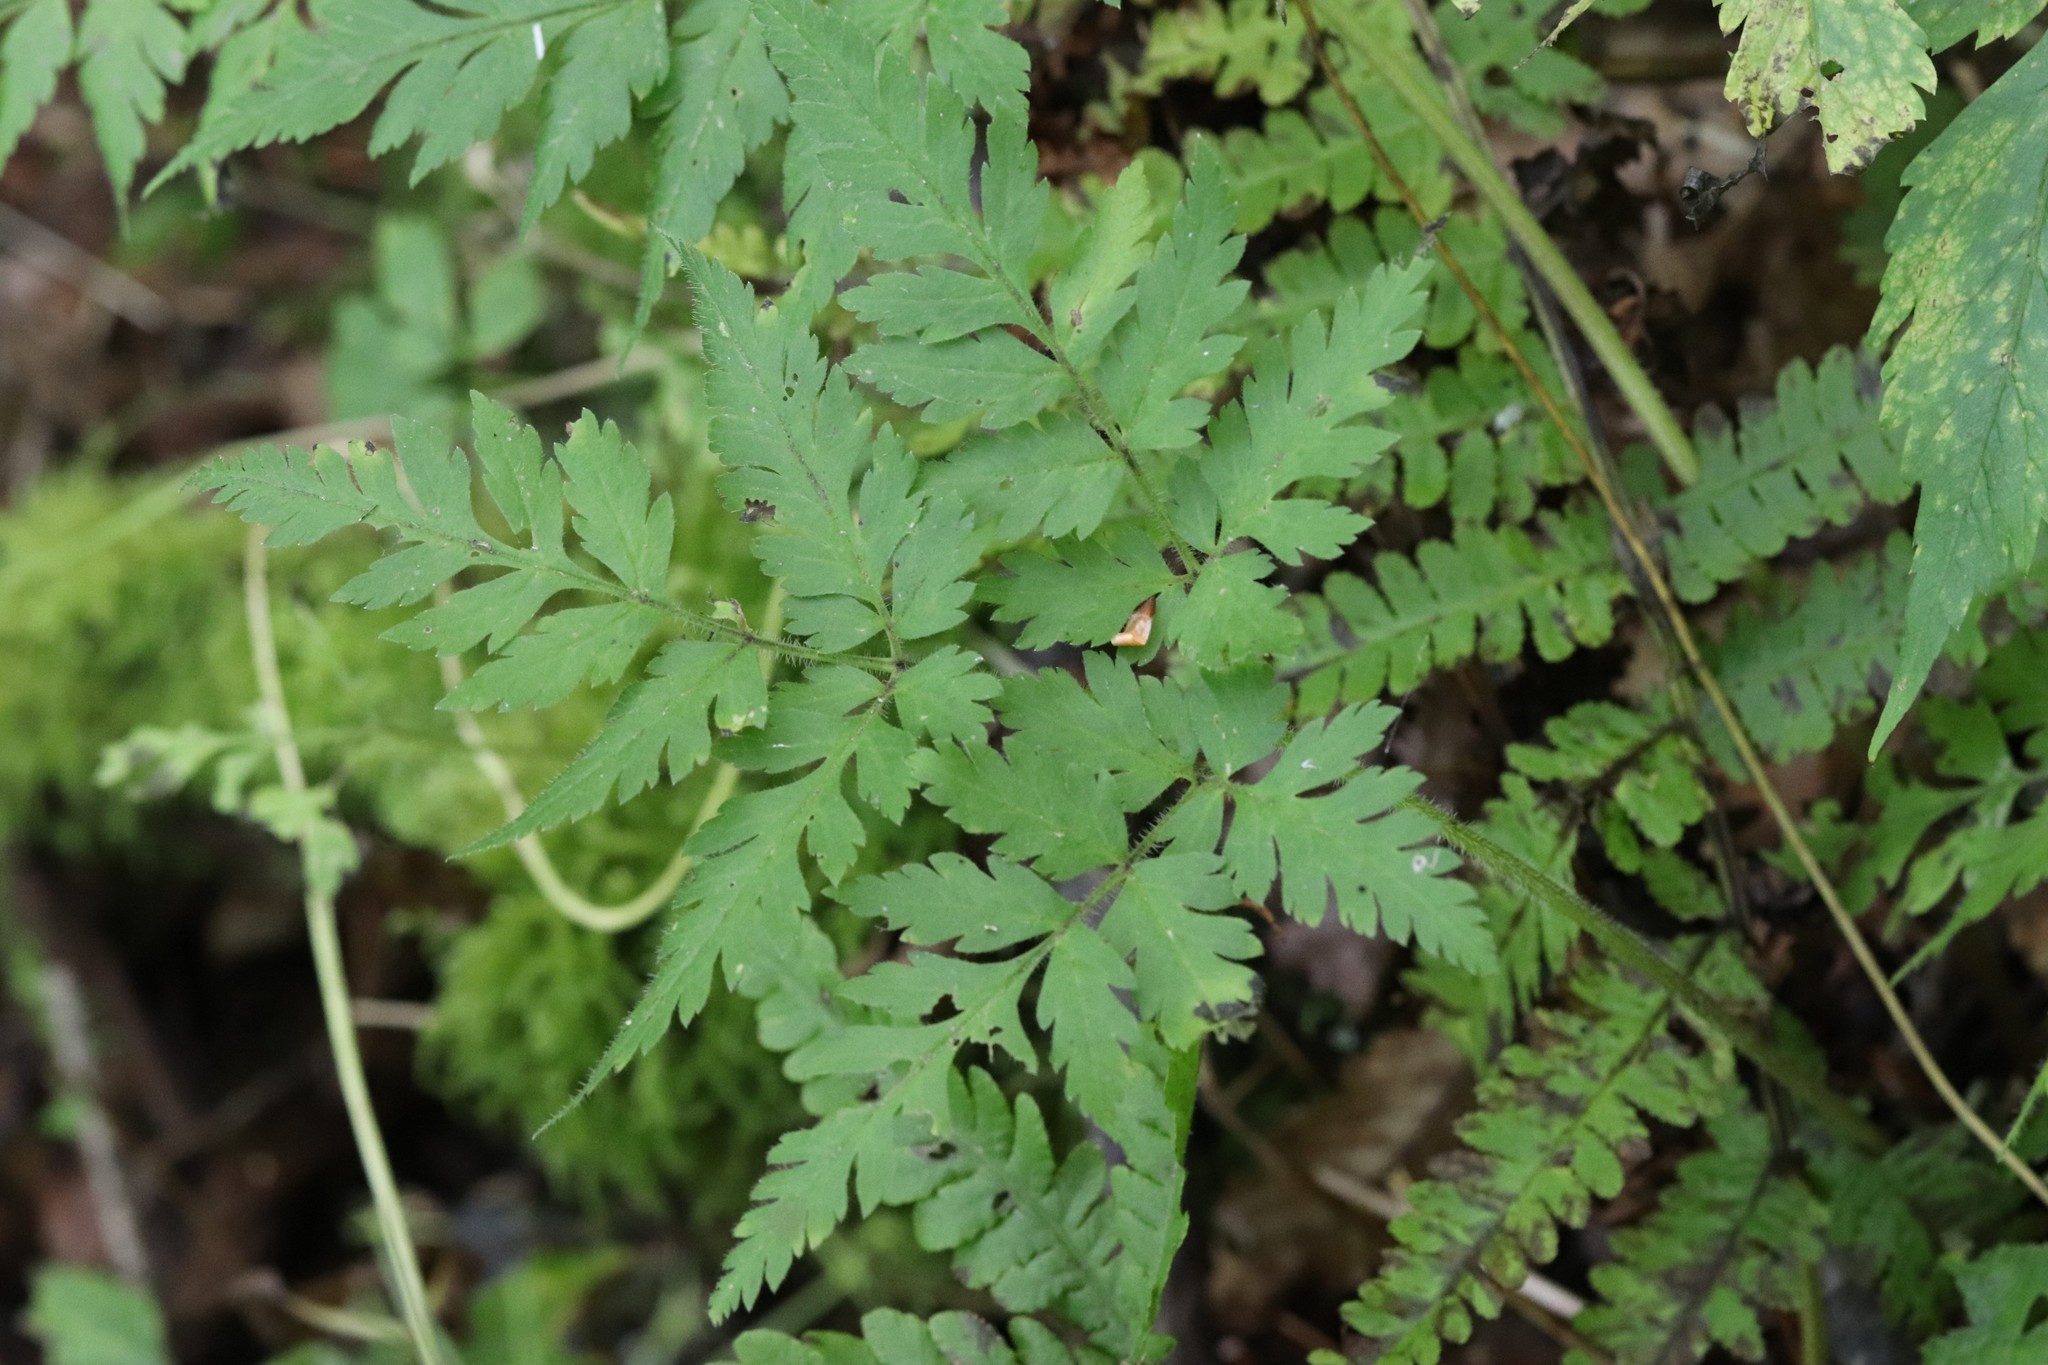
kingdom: Plantae
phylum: Tracheophyta
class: Magnoliopsida
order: Apiales
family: Apiaceae
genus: Osmorhiza
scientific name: Osmorhiza aristata
